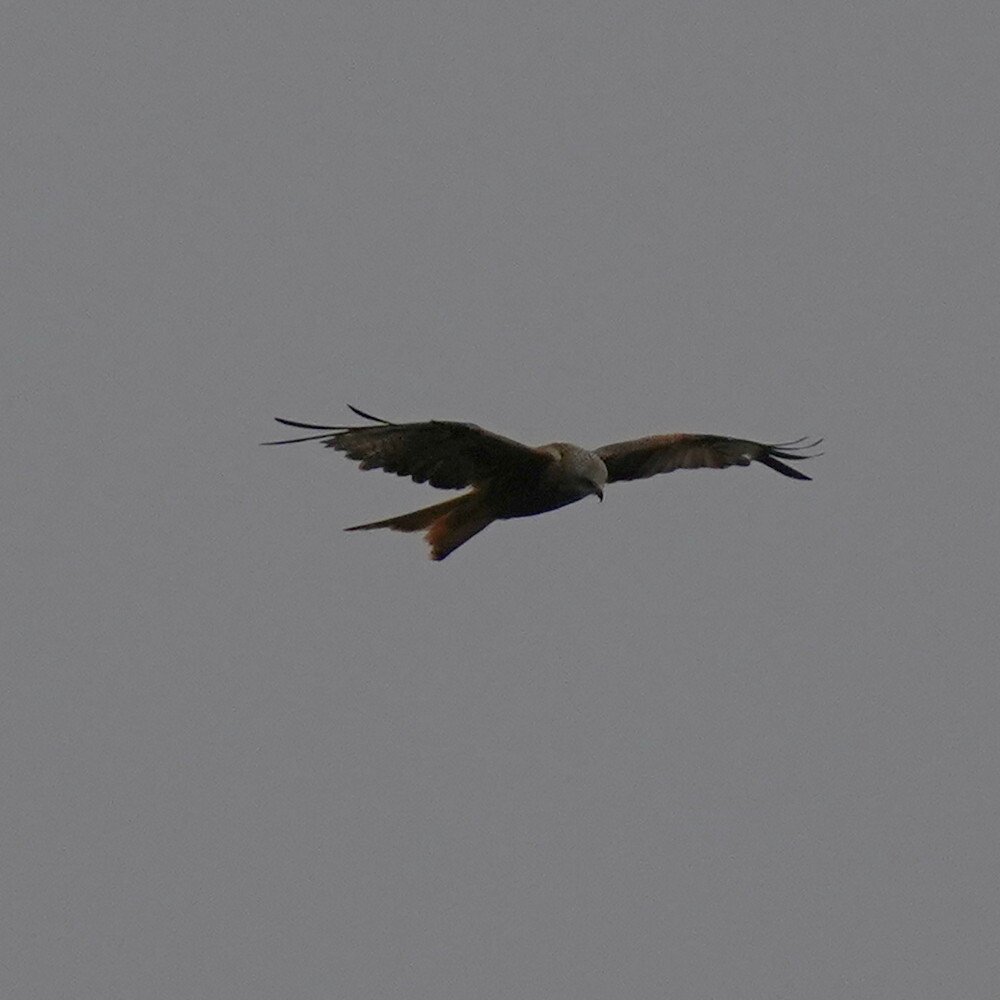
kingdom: Animalia
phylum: Chordata
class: Aves
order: Accipitriformes
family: Accipitridae
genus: Milvus
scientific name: Milvus milvus
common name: Red kite
